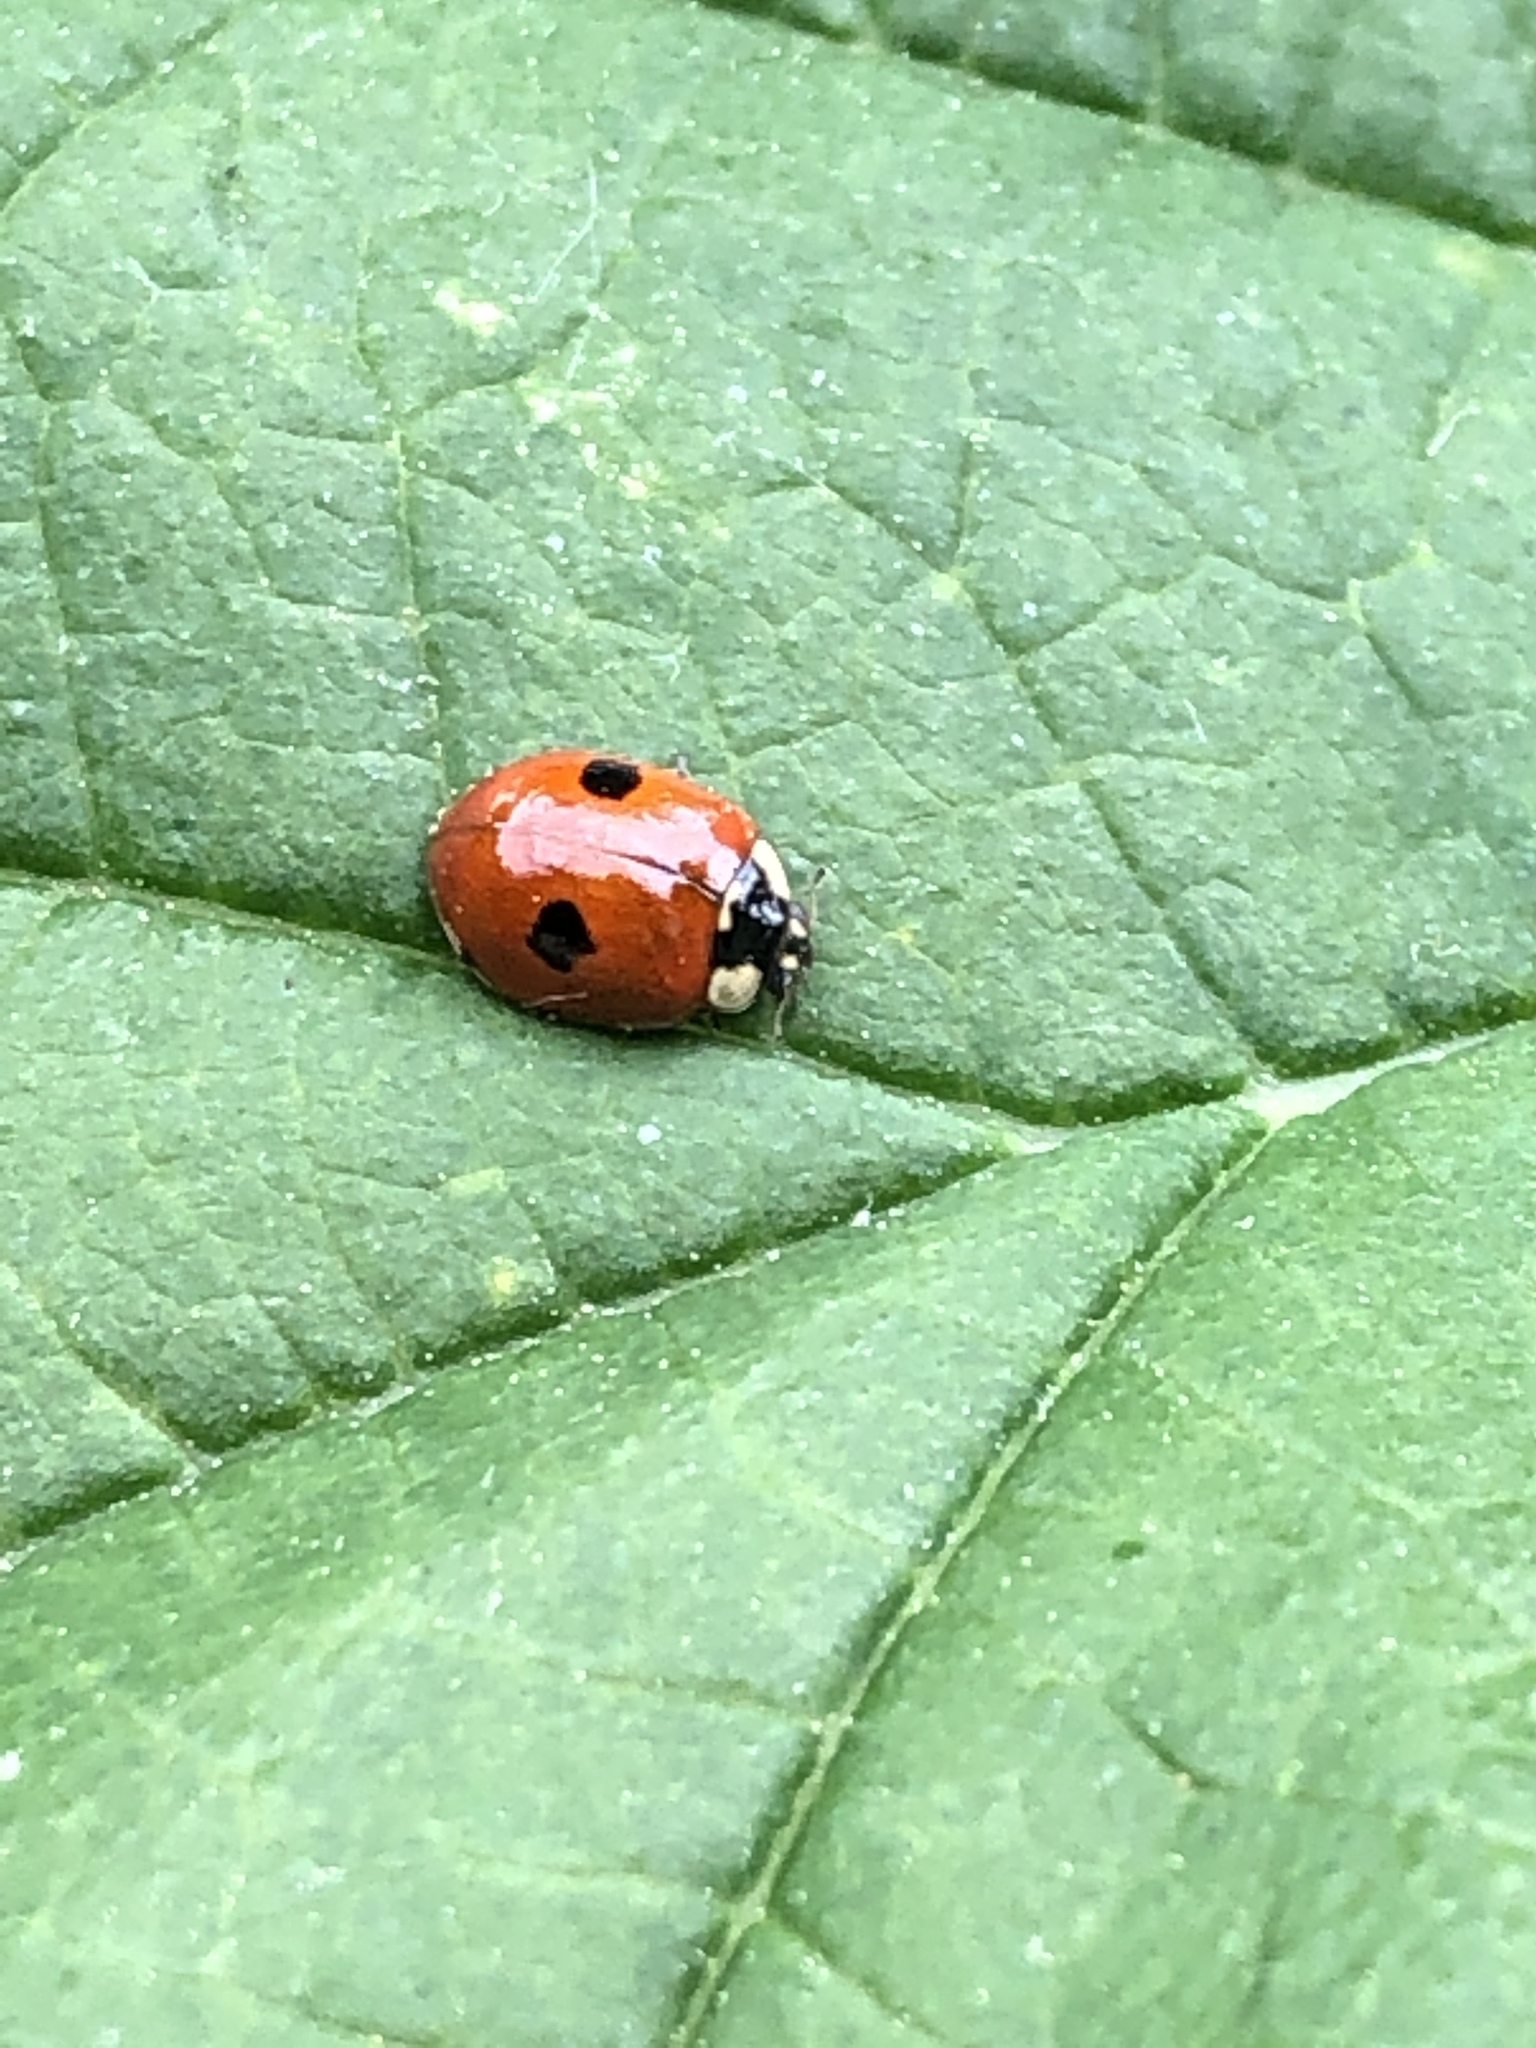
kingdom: Animalia
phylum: Arthropoda
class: Insecta
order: Coleoptera
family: Coccinellidae
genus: Adalia
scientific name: Adalia bipunctata
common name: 2-spot ladybird
